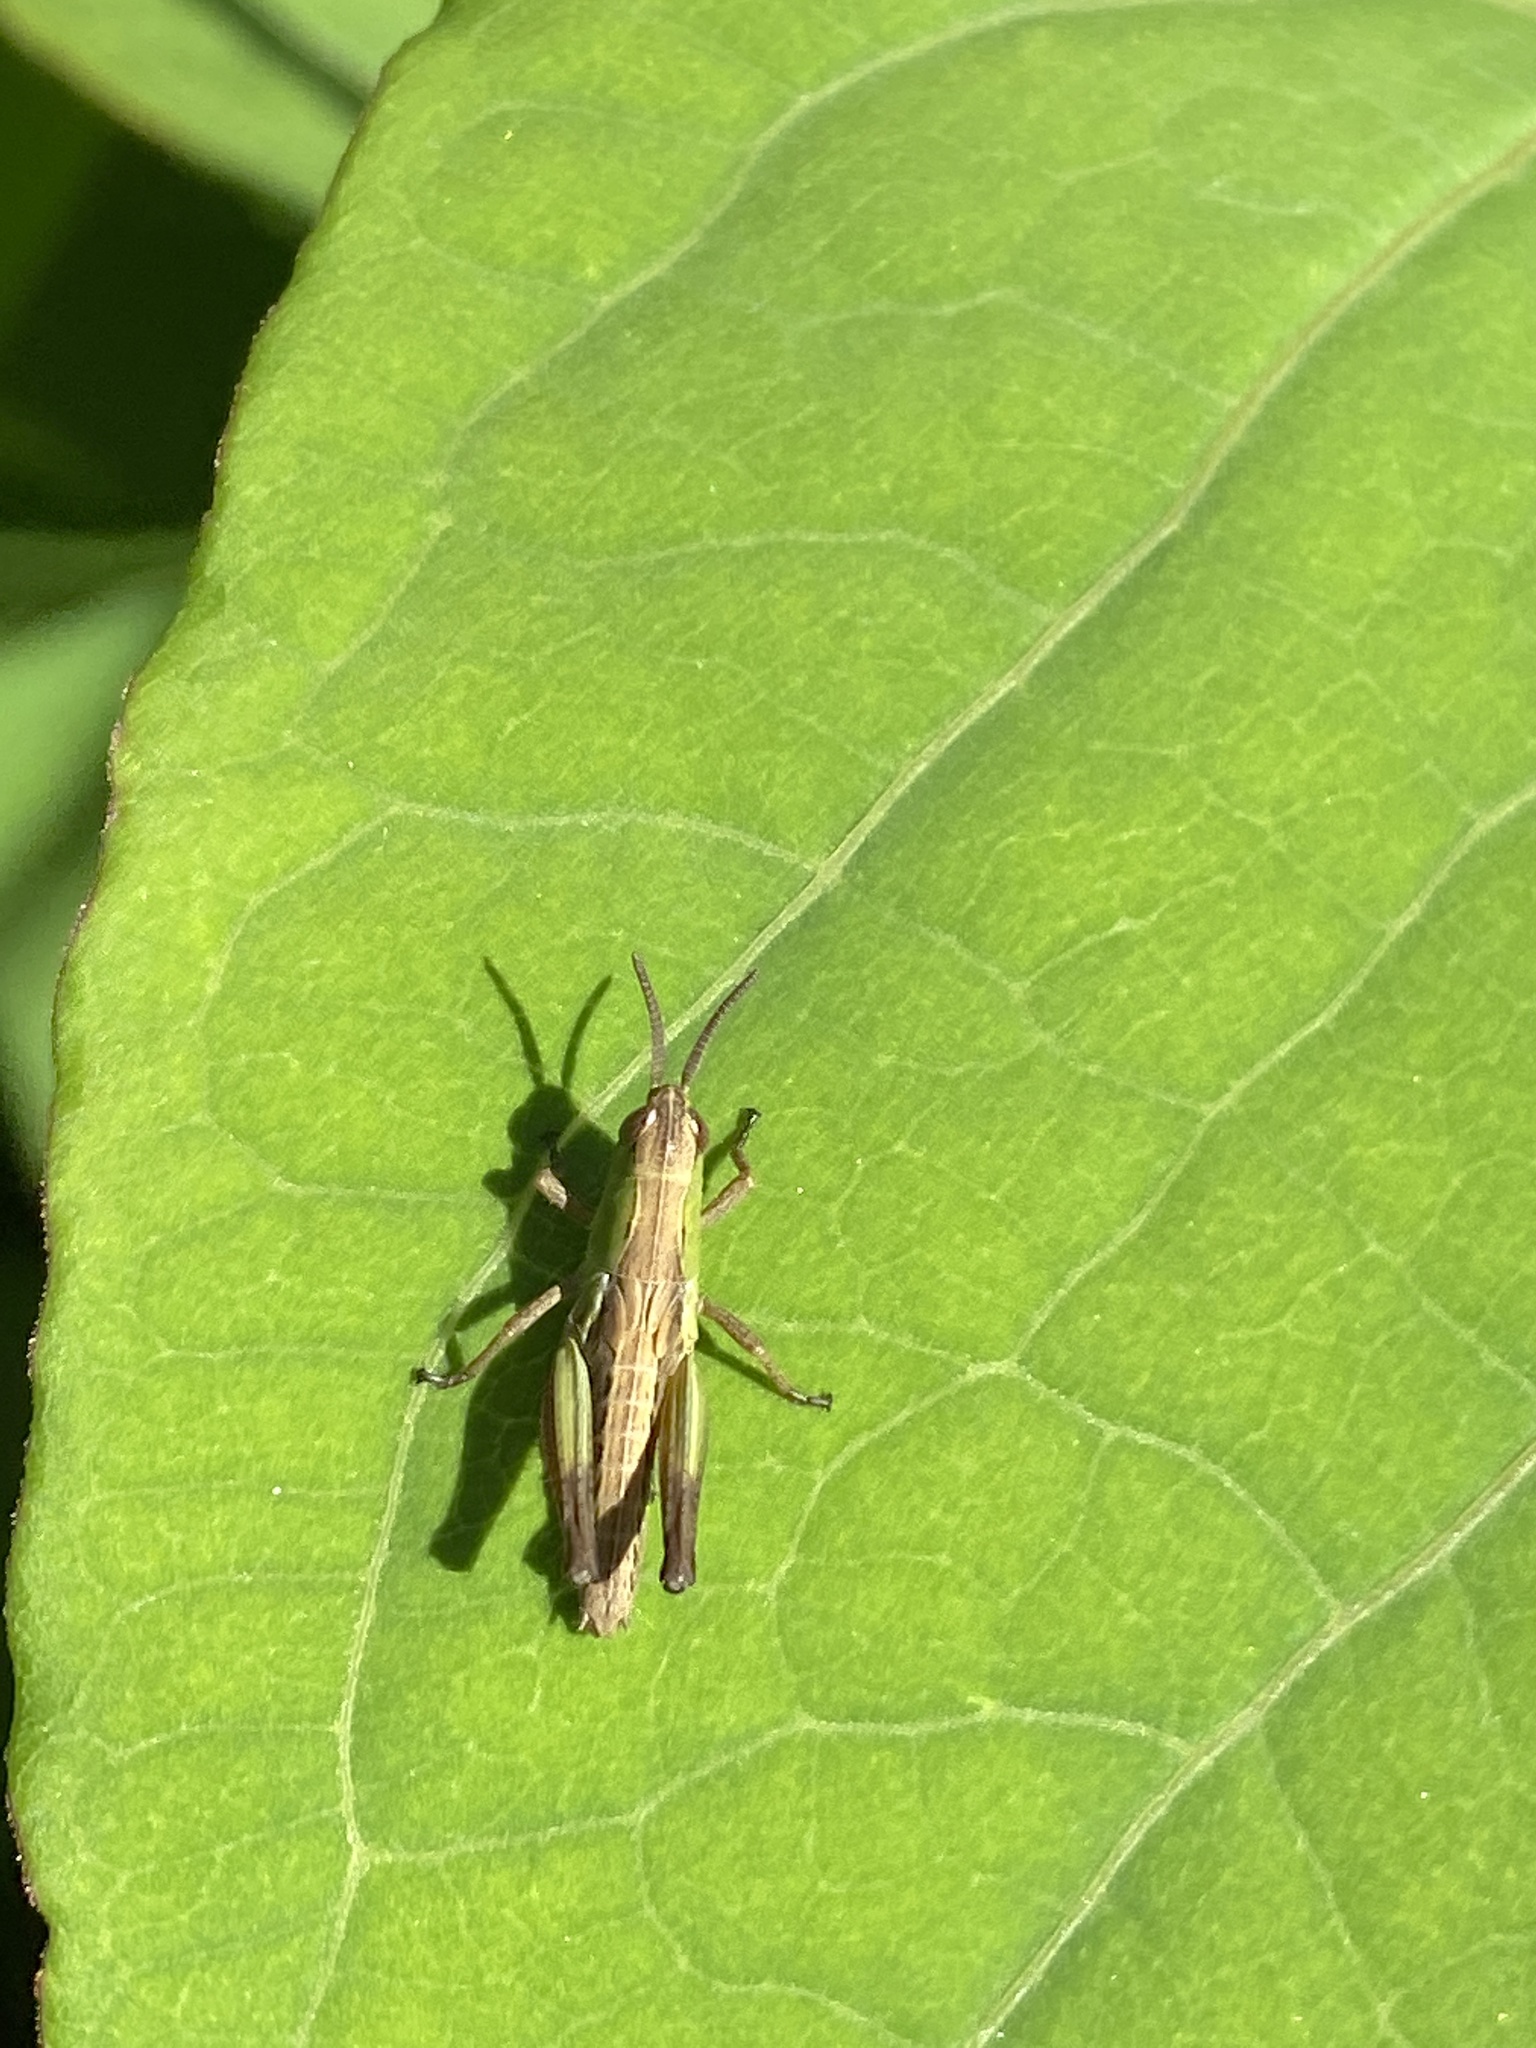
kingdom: Animalia
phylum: Arthropoda
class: Insecta
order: Orthoptera
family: Acrididae
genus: Pseudochorthippus
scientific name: Pseudochorthippus parallelus
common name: Meadow grasshopper
